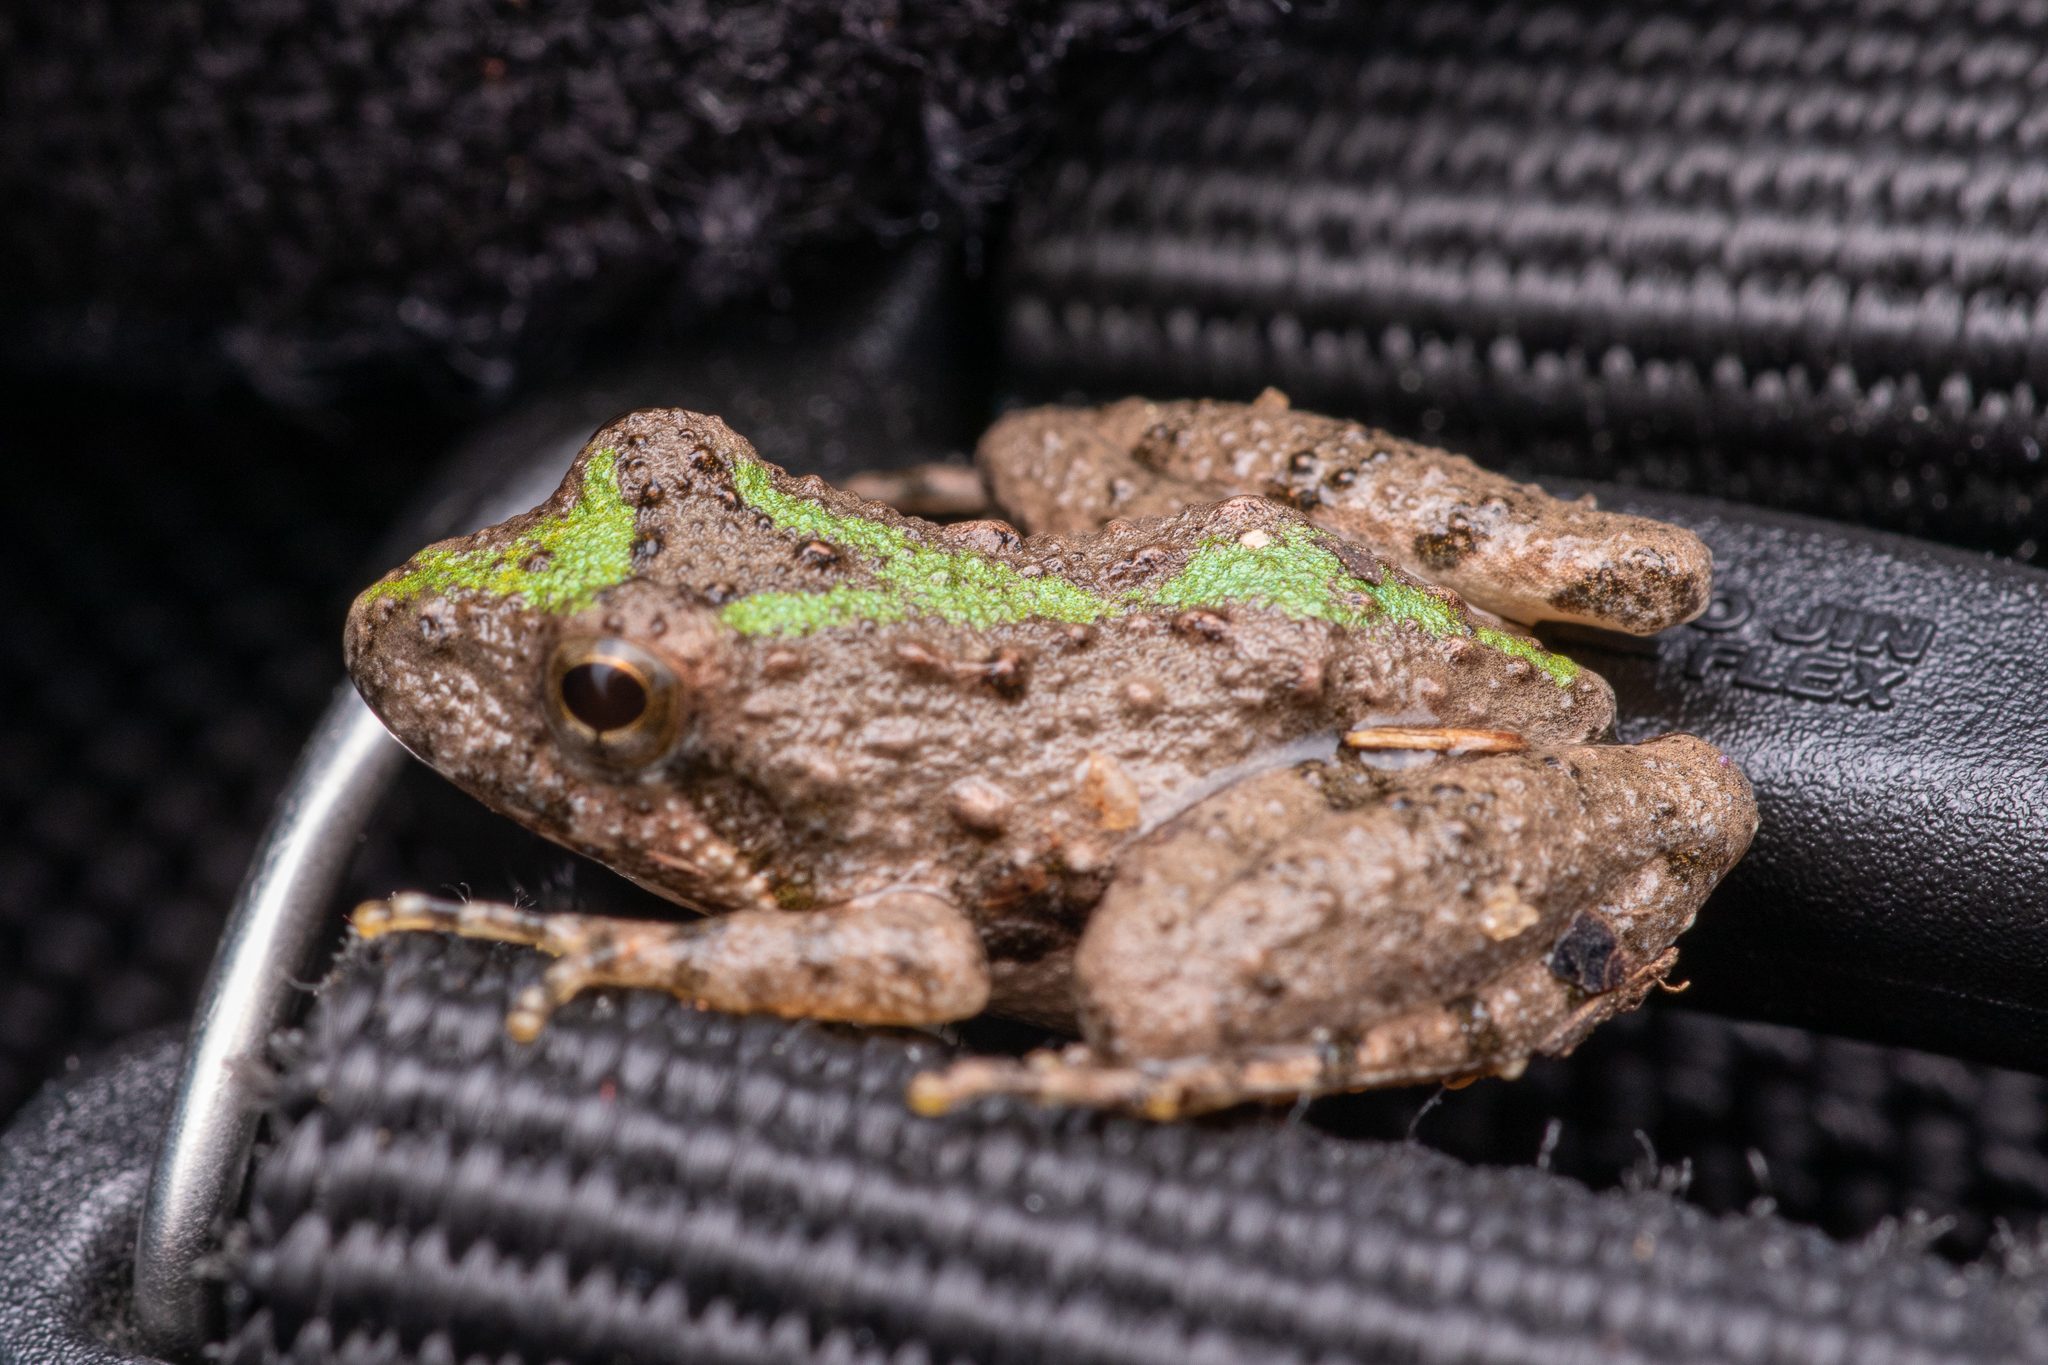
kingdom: Animalia
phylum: Chordata
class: Amphibia
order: Anura
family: Hylidae
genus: Acris
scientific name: Acris crepitans
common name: Northern cricket frog
